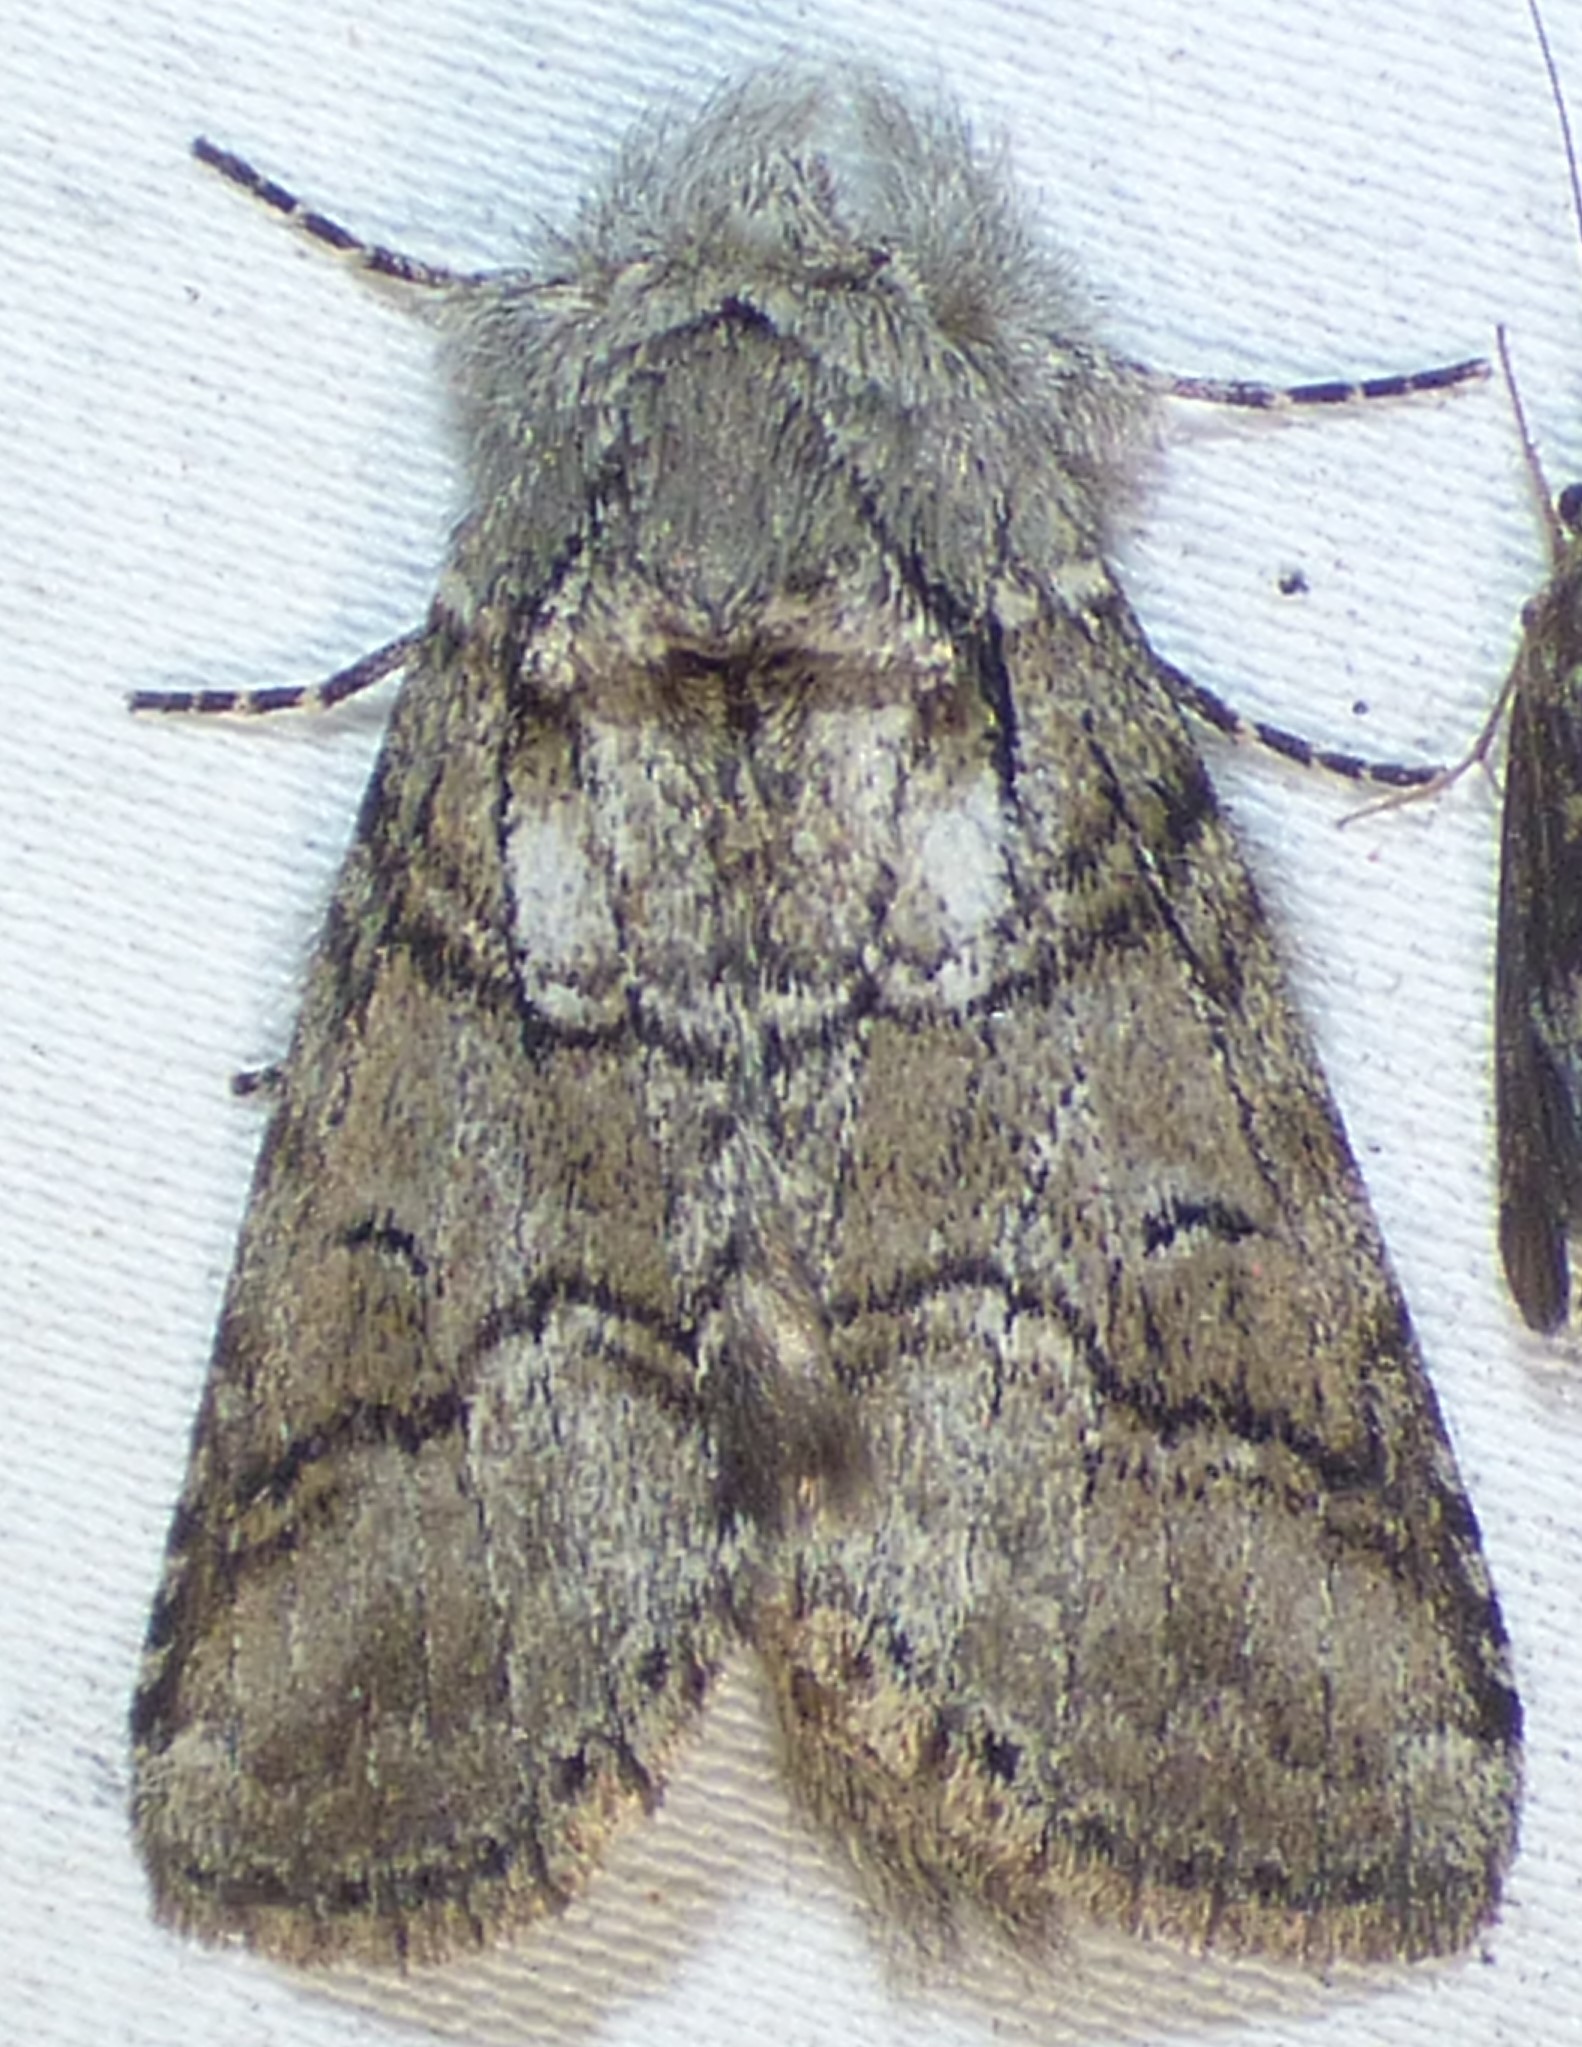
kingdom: Animalia
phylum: Arthropoda
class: Insecta
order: Lepidoptera
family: Notodontidae
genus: Lochmaeus
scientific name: Lochmaeus bilineata
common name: Double-lined prominent
